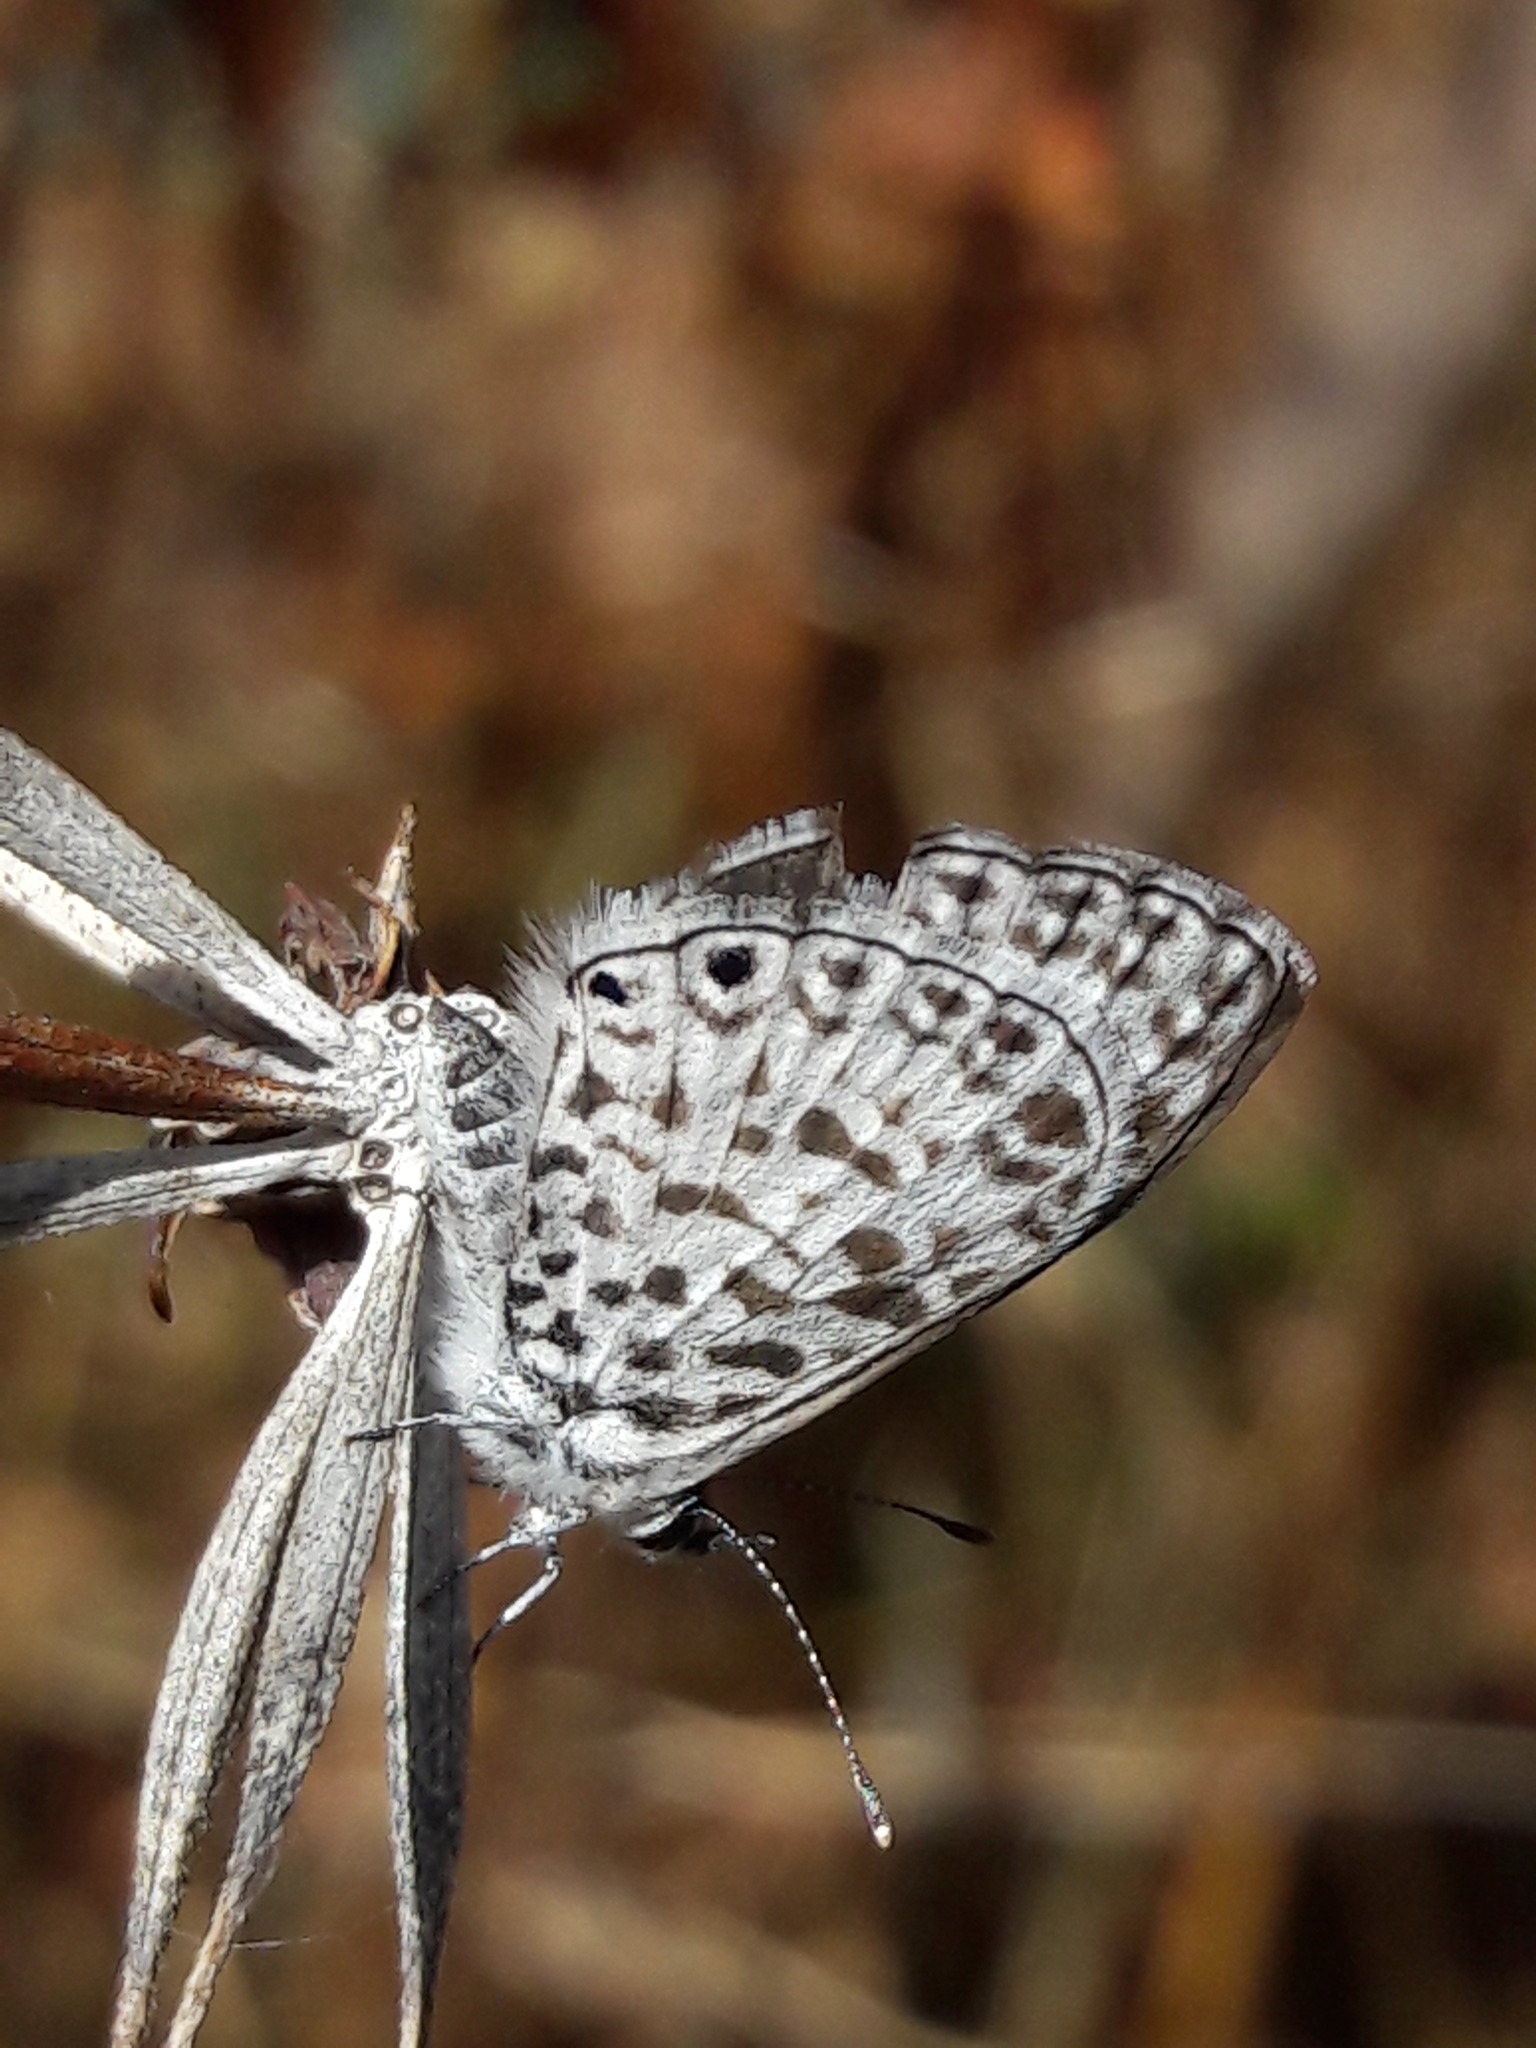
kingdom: Animalia
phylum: Arthropoda
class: Insecta
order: Lepidoptera
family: Lycaenidae
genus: Leptotes
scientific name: Leptotes cassius
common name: Cassius blue
